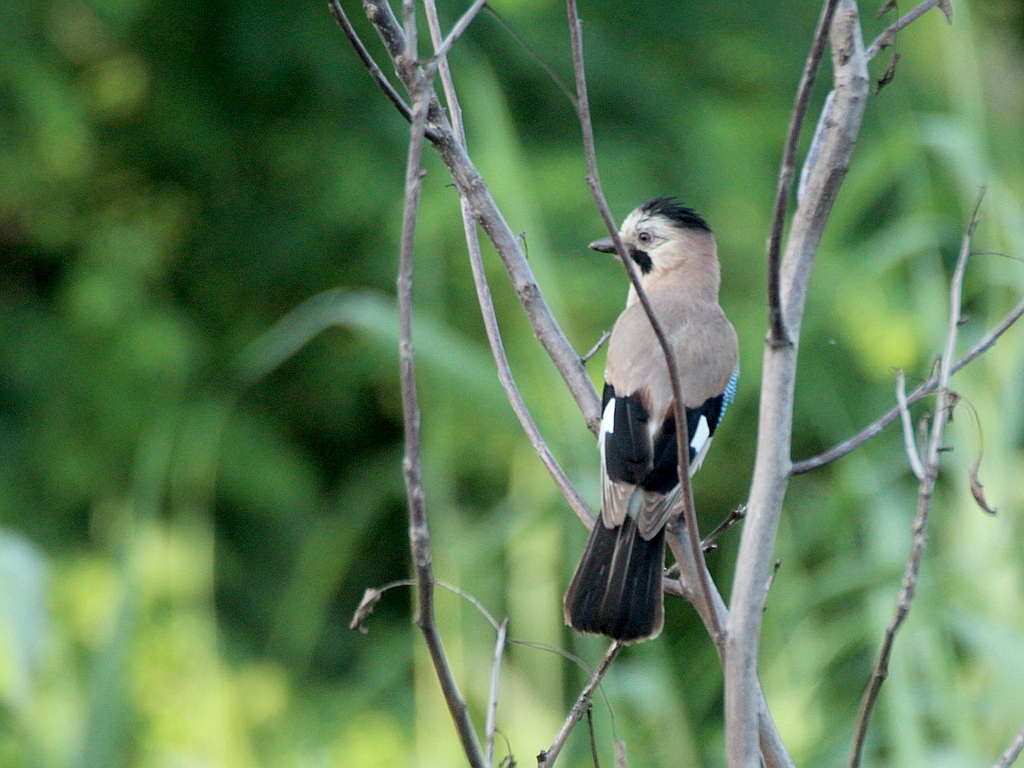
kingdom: Animalia
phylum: Chordata
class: Aves
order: Passeriformes
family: Corvidae
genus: Garrulus
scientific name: Garrulus glandarius
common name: Eurasian jay
